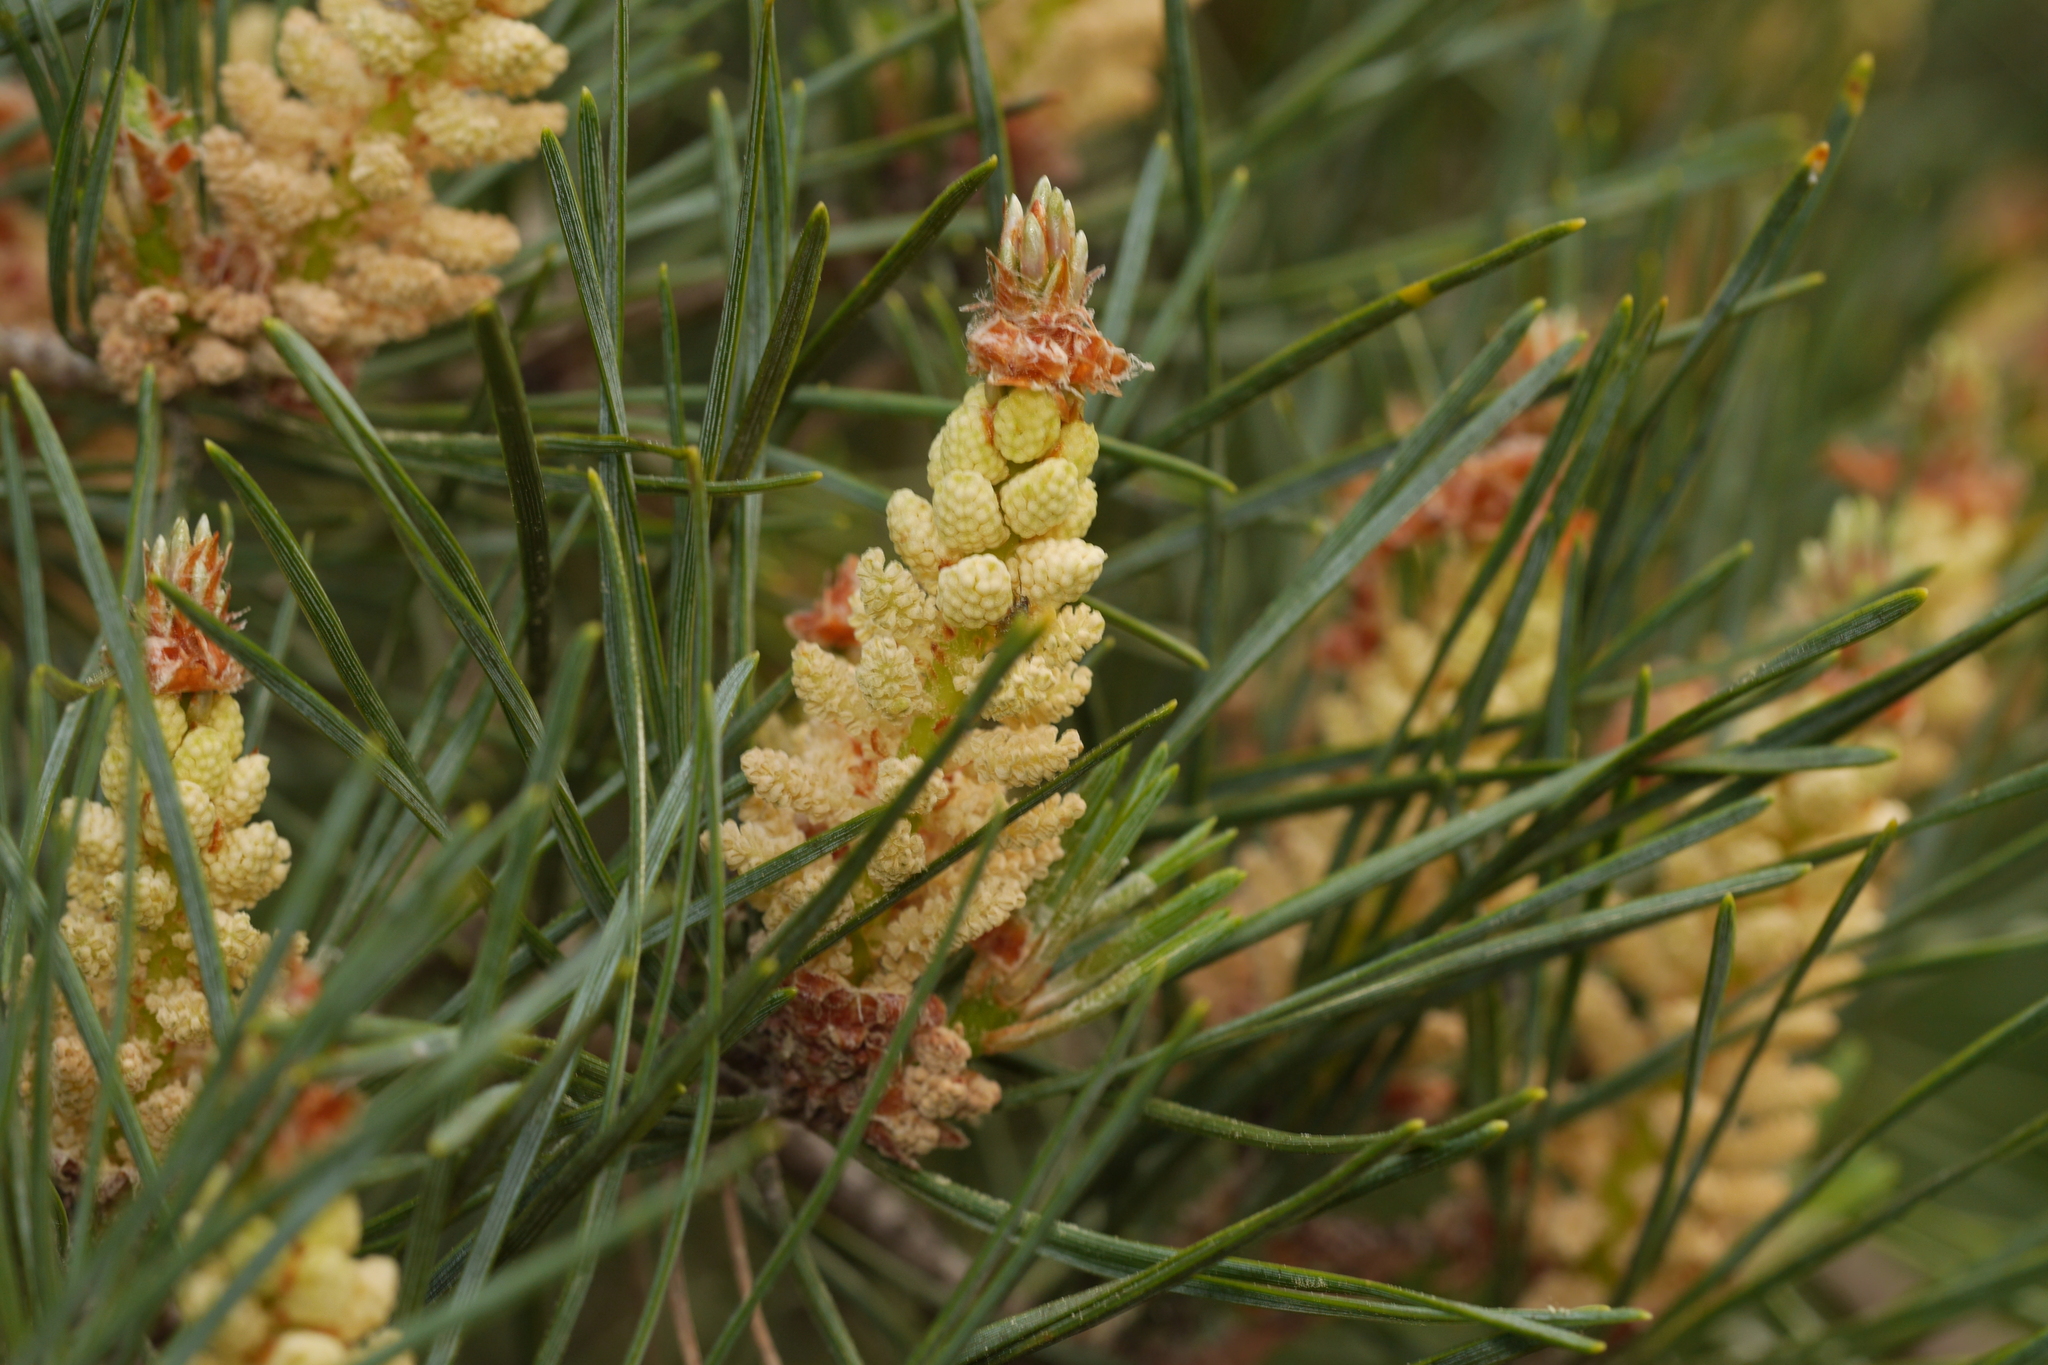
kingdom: Plantae
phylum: Tracheophyta
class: Pinopsida
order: Pinales
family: Pinaceae
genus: Pinus
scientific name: Pinus sylvestris
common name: Scots pine
